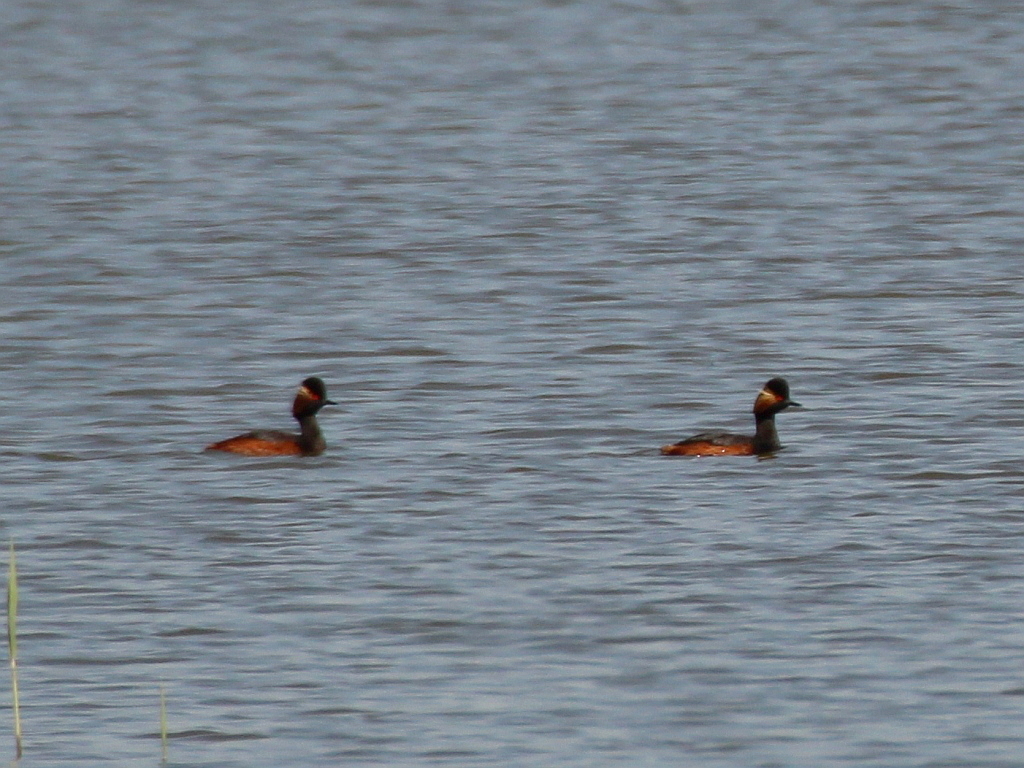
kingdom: Animalia
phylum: Chordata
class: Aves
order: Podicipediformes
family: Podicipedidae
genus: Podiceps
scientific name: Podiceps nigricollis
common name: Black-necked grebe
